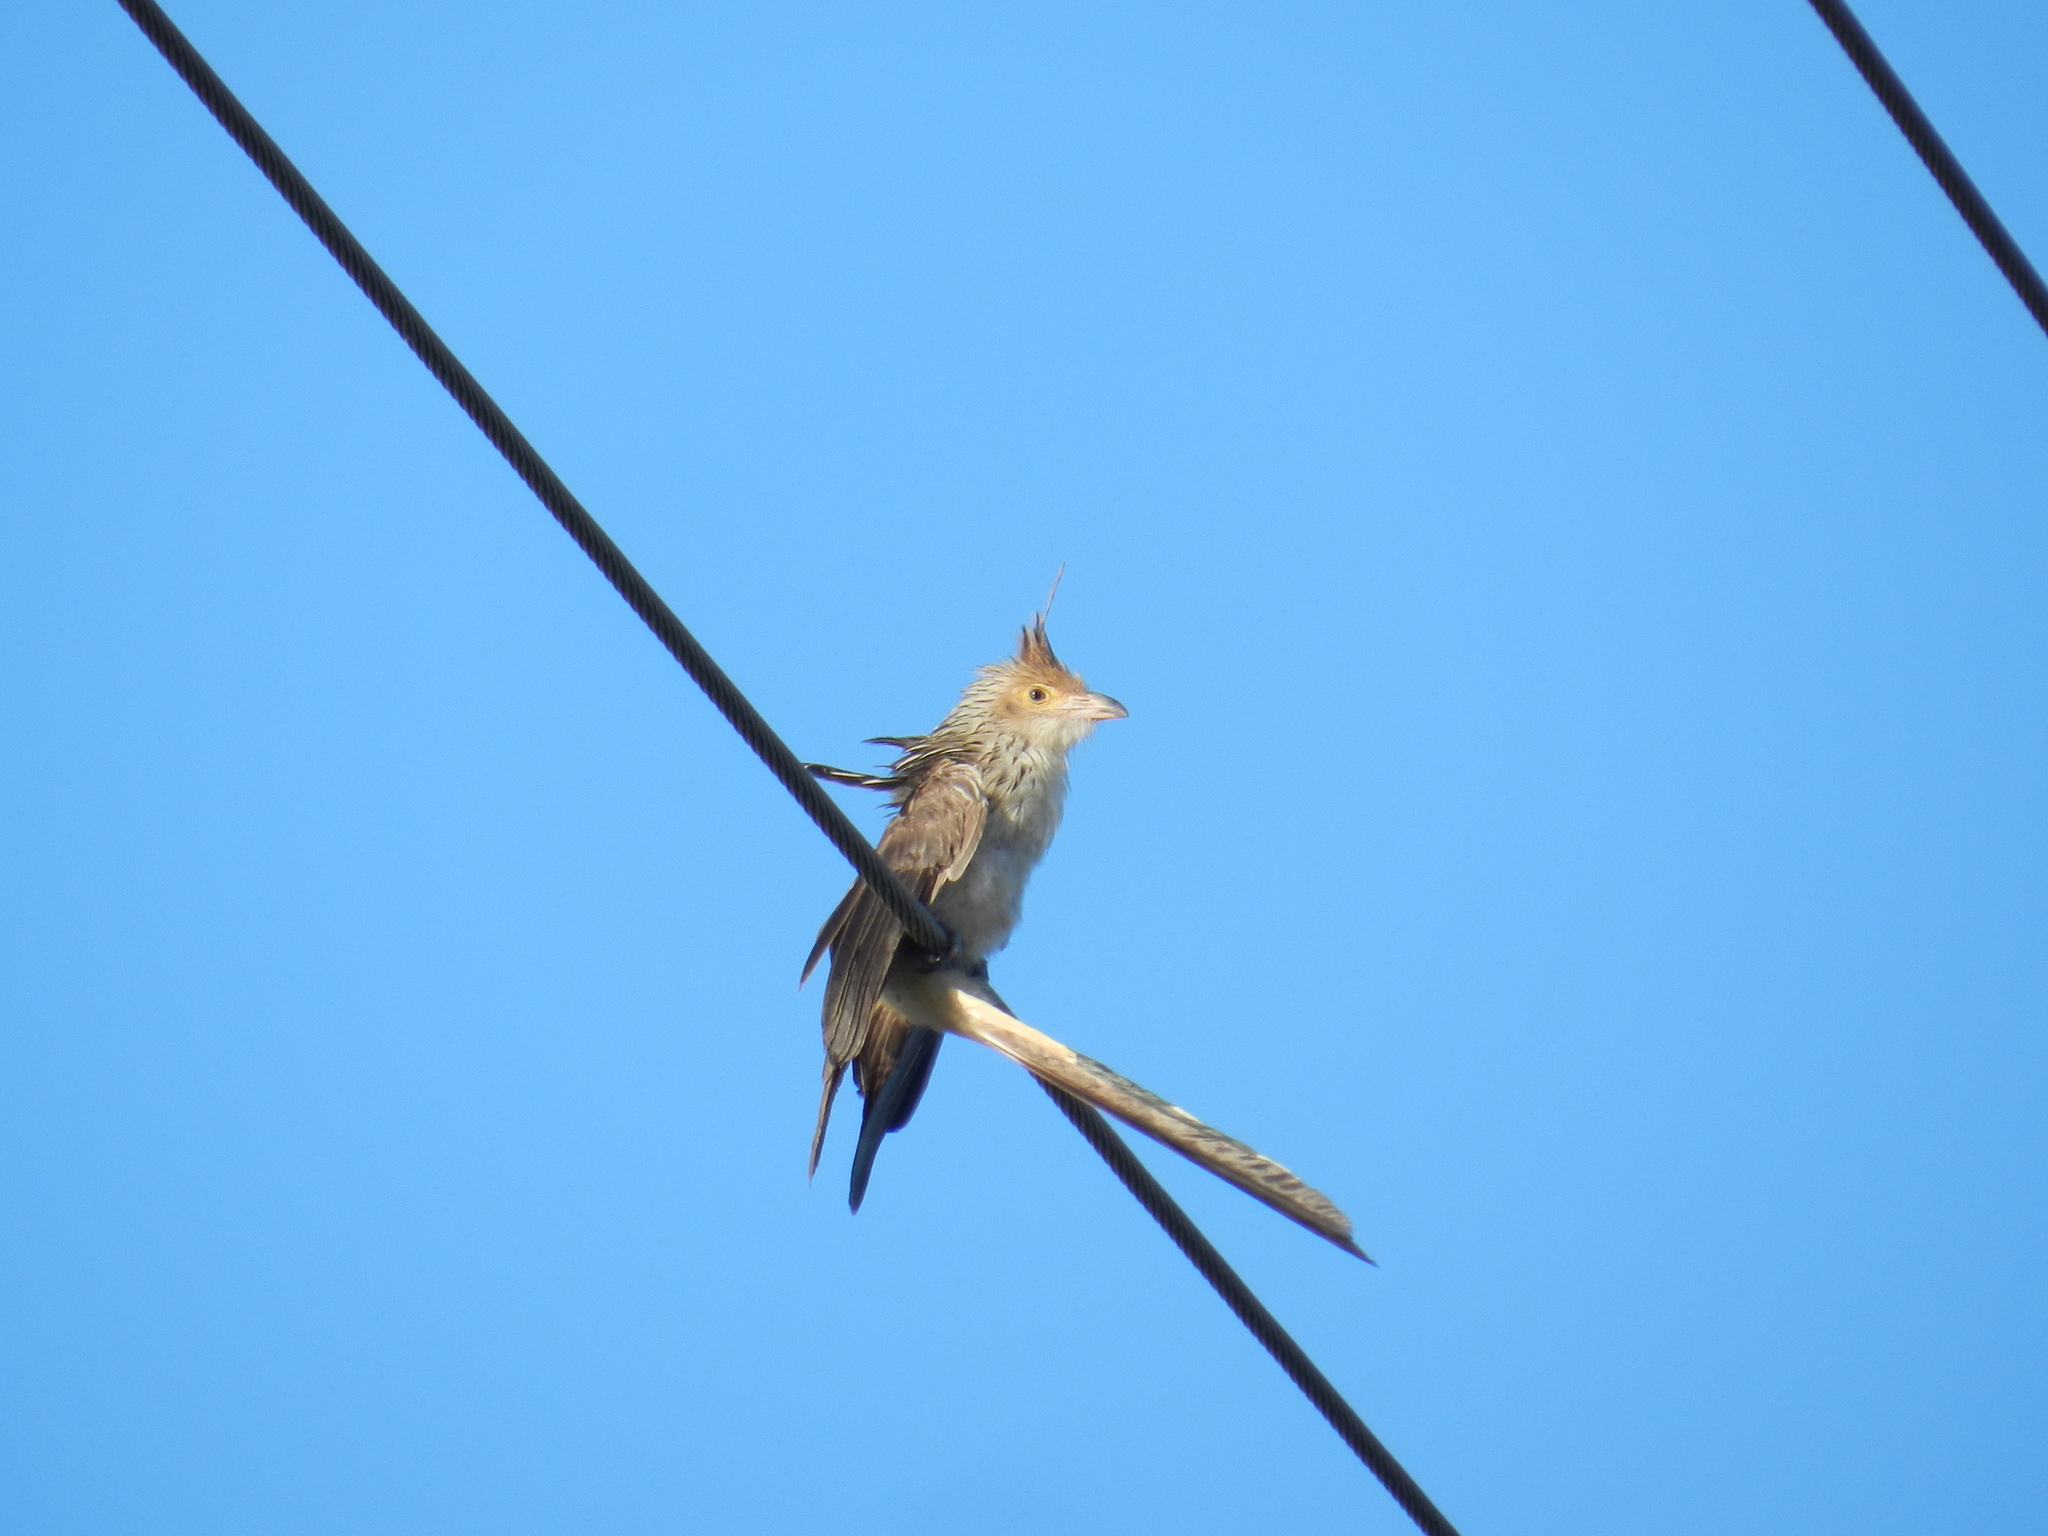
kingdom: Animalia
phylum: Chordata
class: Aves
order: Cuculiformes
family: Cuculidae
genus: Guira
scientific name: Guira guira
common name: Guira cuckoo
